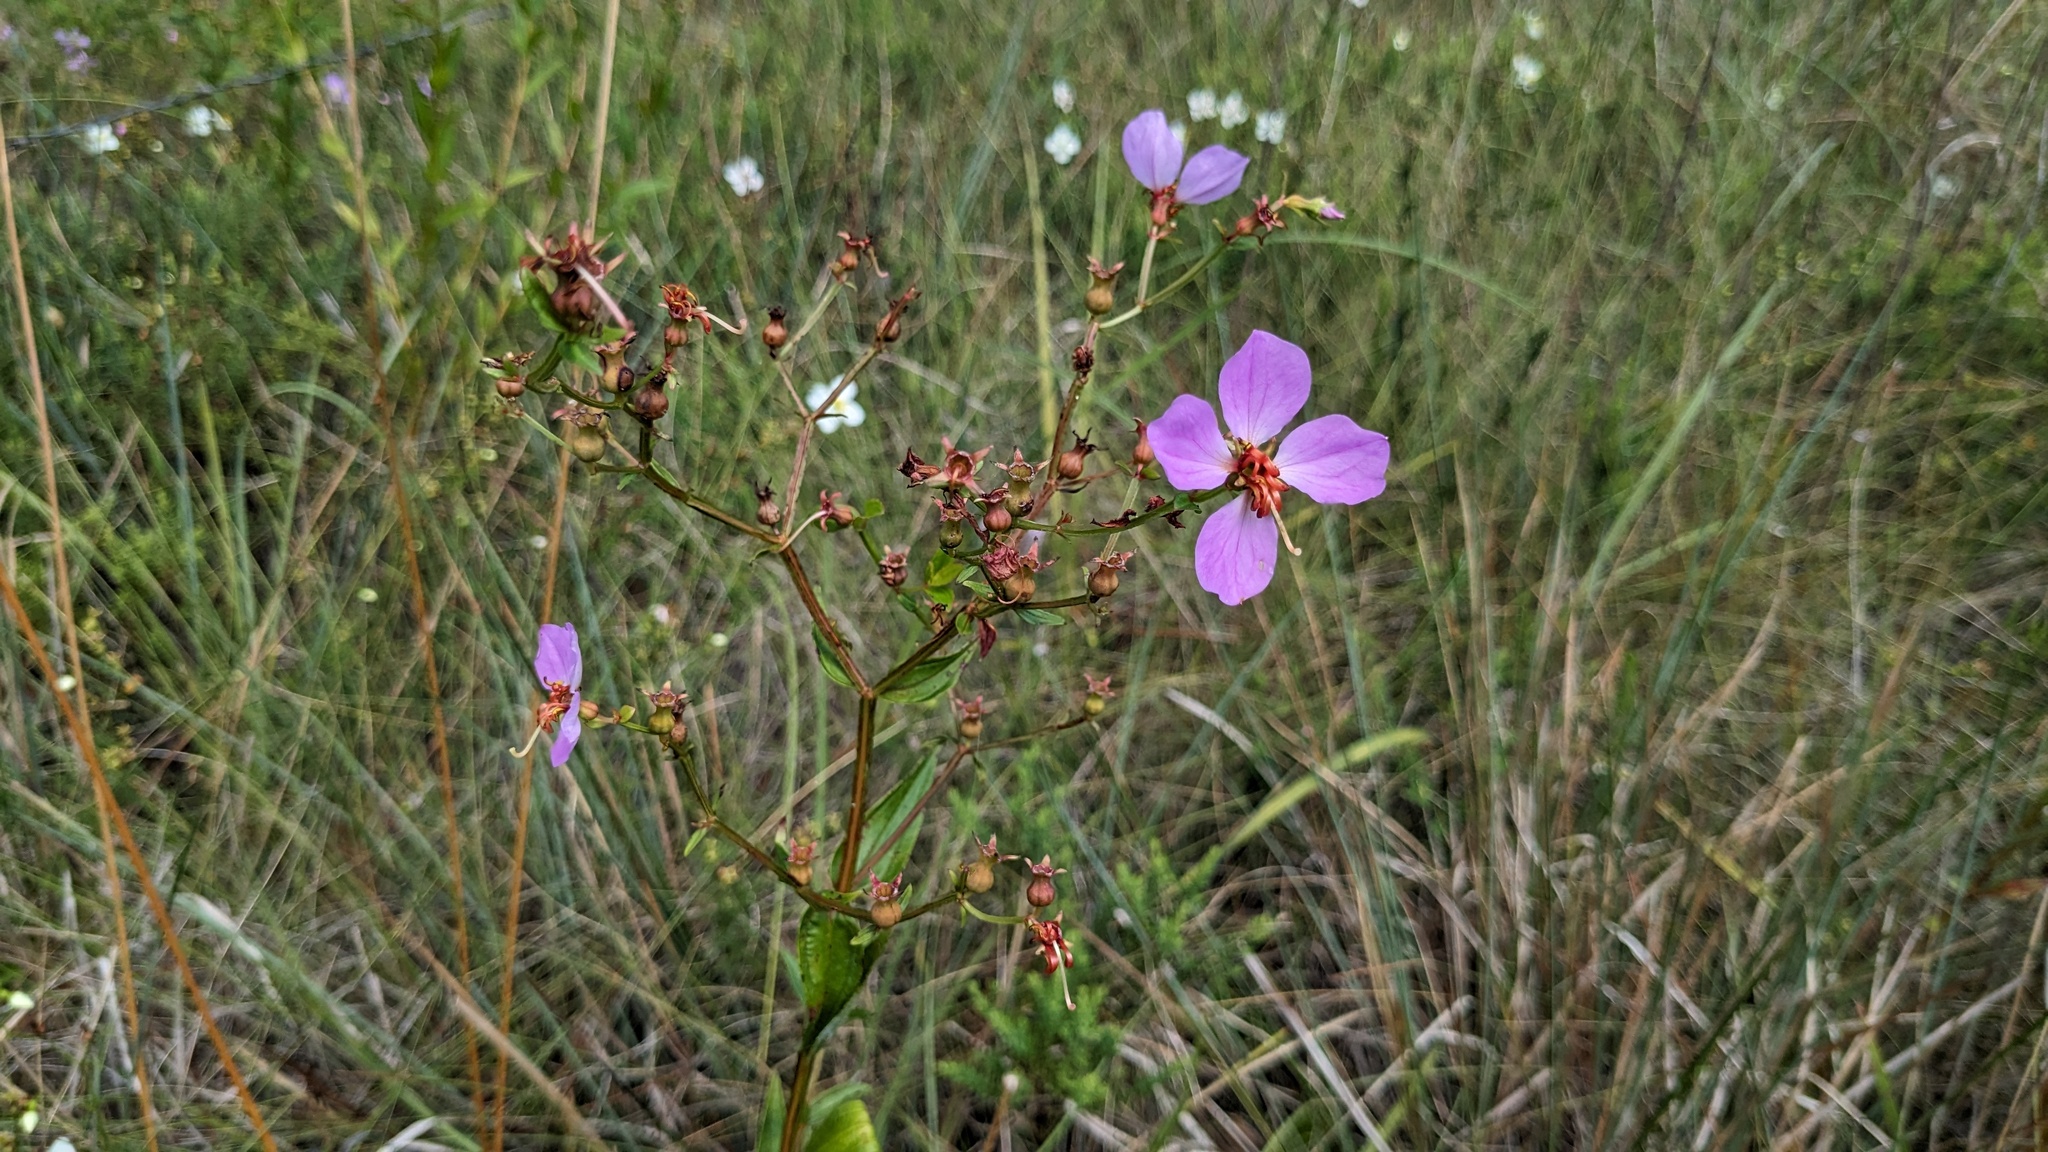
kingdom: Plantae
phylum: Tracheophyta
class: Magnoliopsida
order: Myrtales
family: Melastomataceae
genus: Rhexia
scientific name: Rhexia virginica
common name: Common meadow beauty
